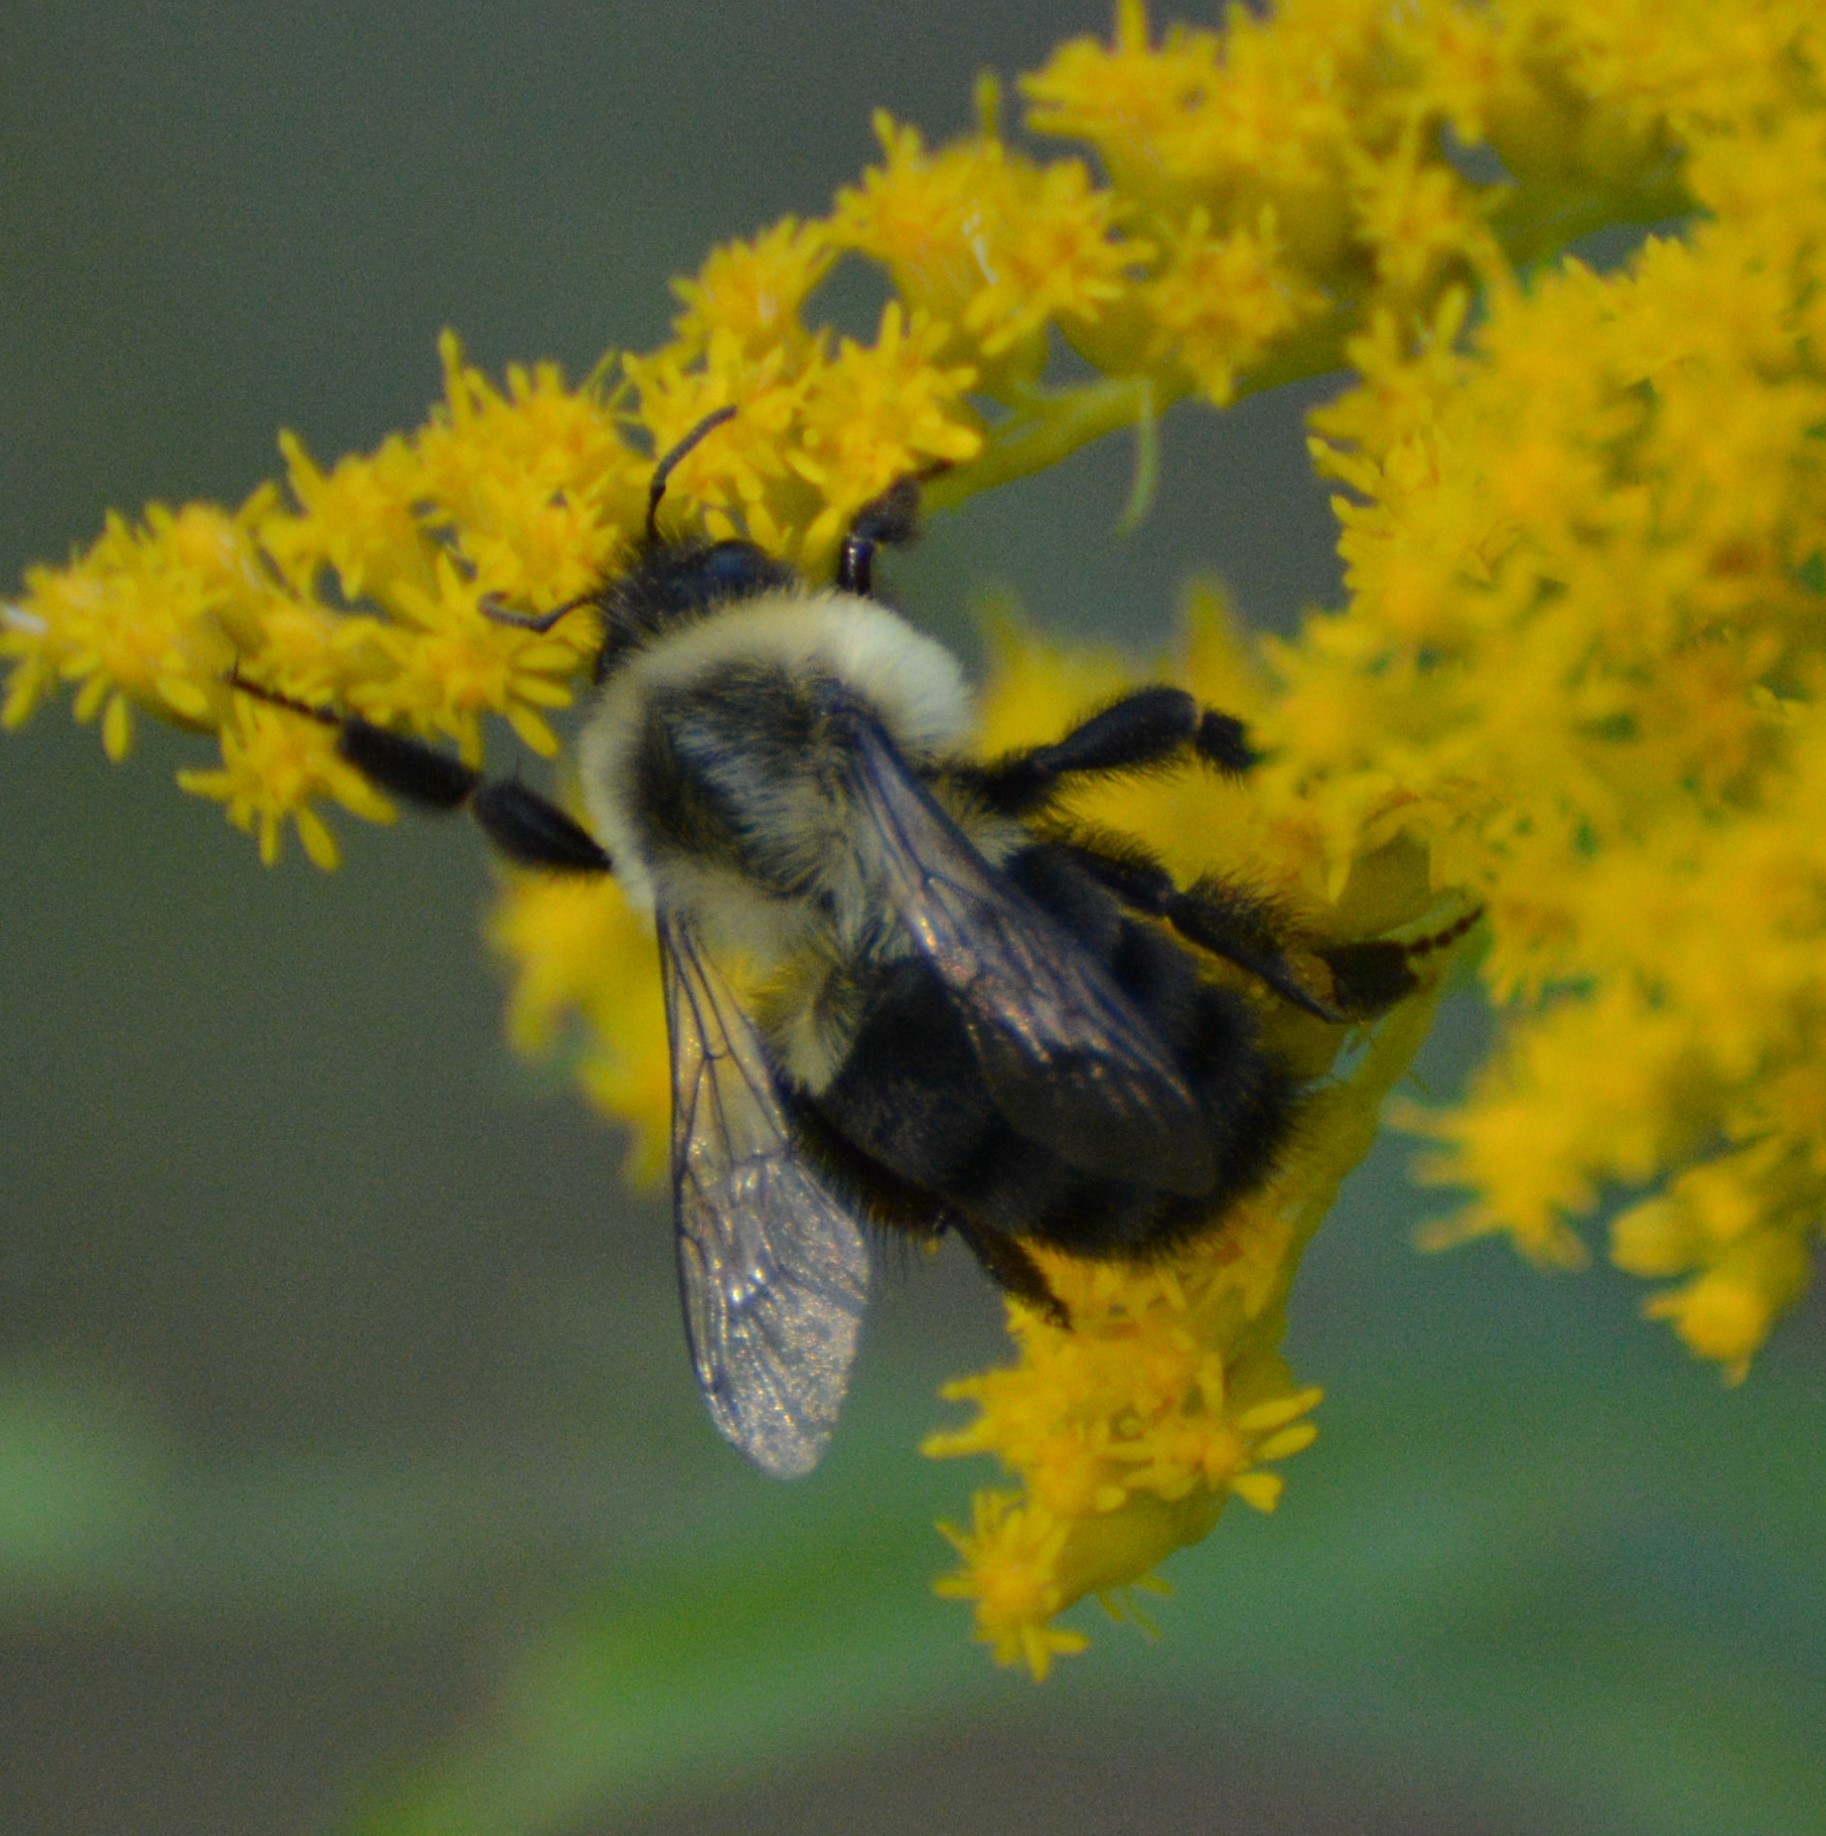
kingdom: Animalia
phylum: Arthropoda
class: Insecta
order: Hymenoptera
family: Apidae
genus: Bombus
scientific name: Bombus impatiens
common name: Common eastern bumble bee
